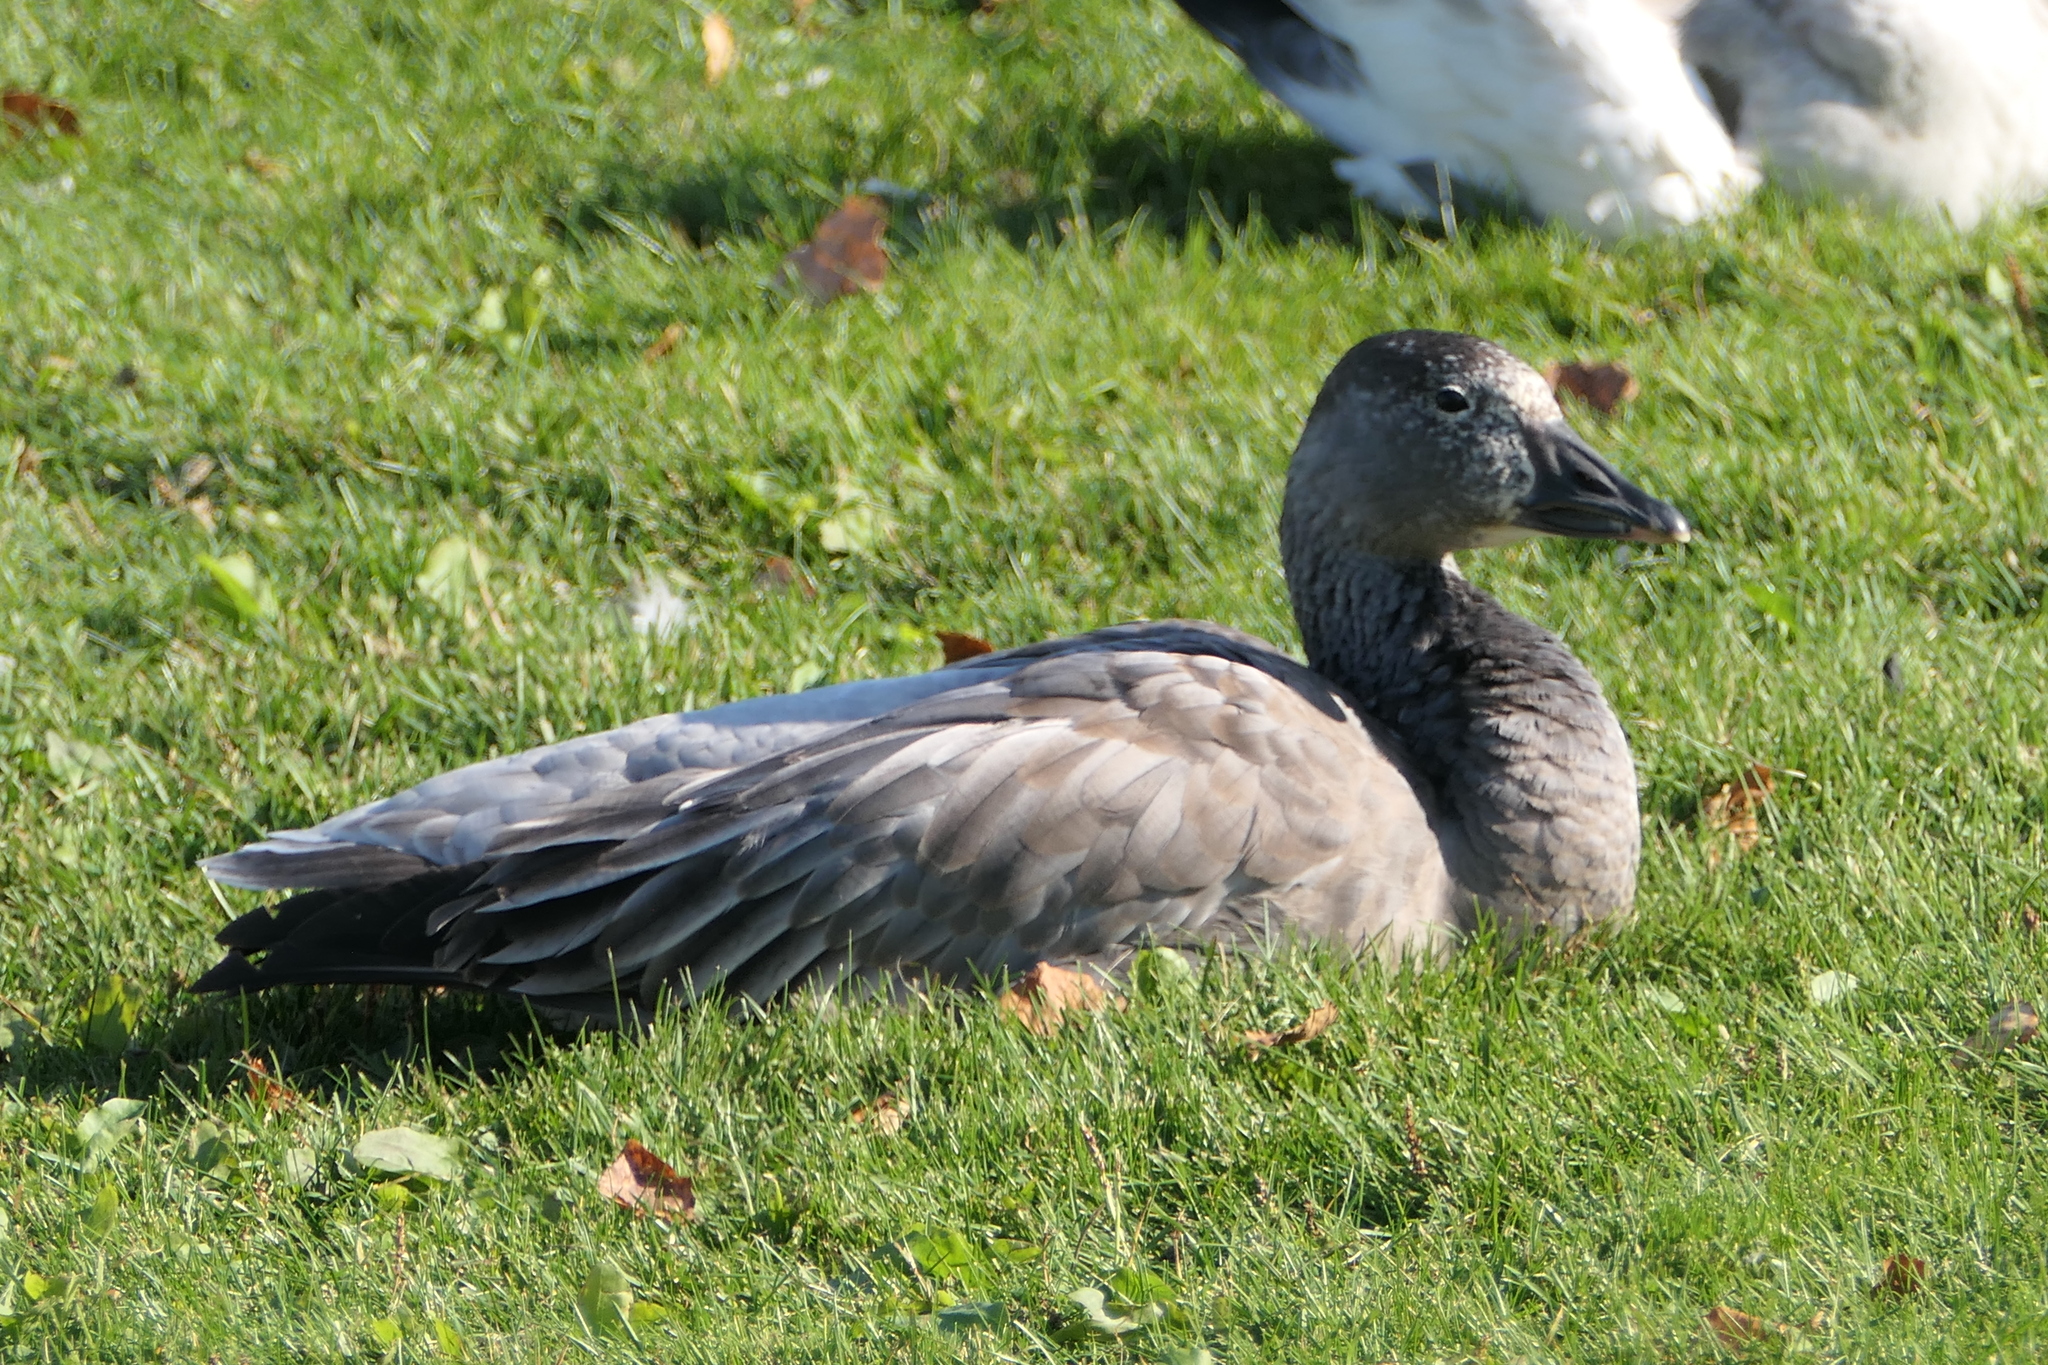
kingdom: Animalia
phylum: Chordata
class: Aves
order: Anseriformes
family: Anatidae
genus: Anser
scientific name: Anser caerulescens
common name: Snow goose
